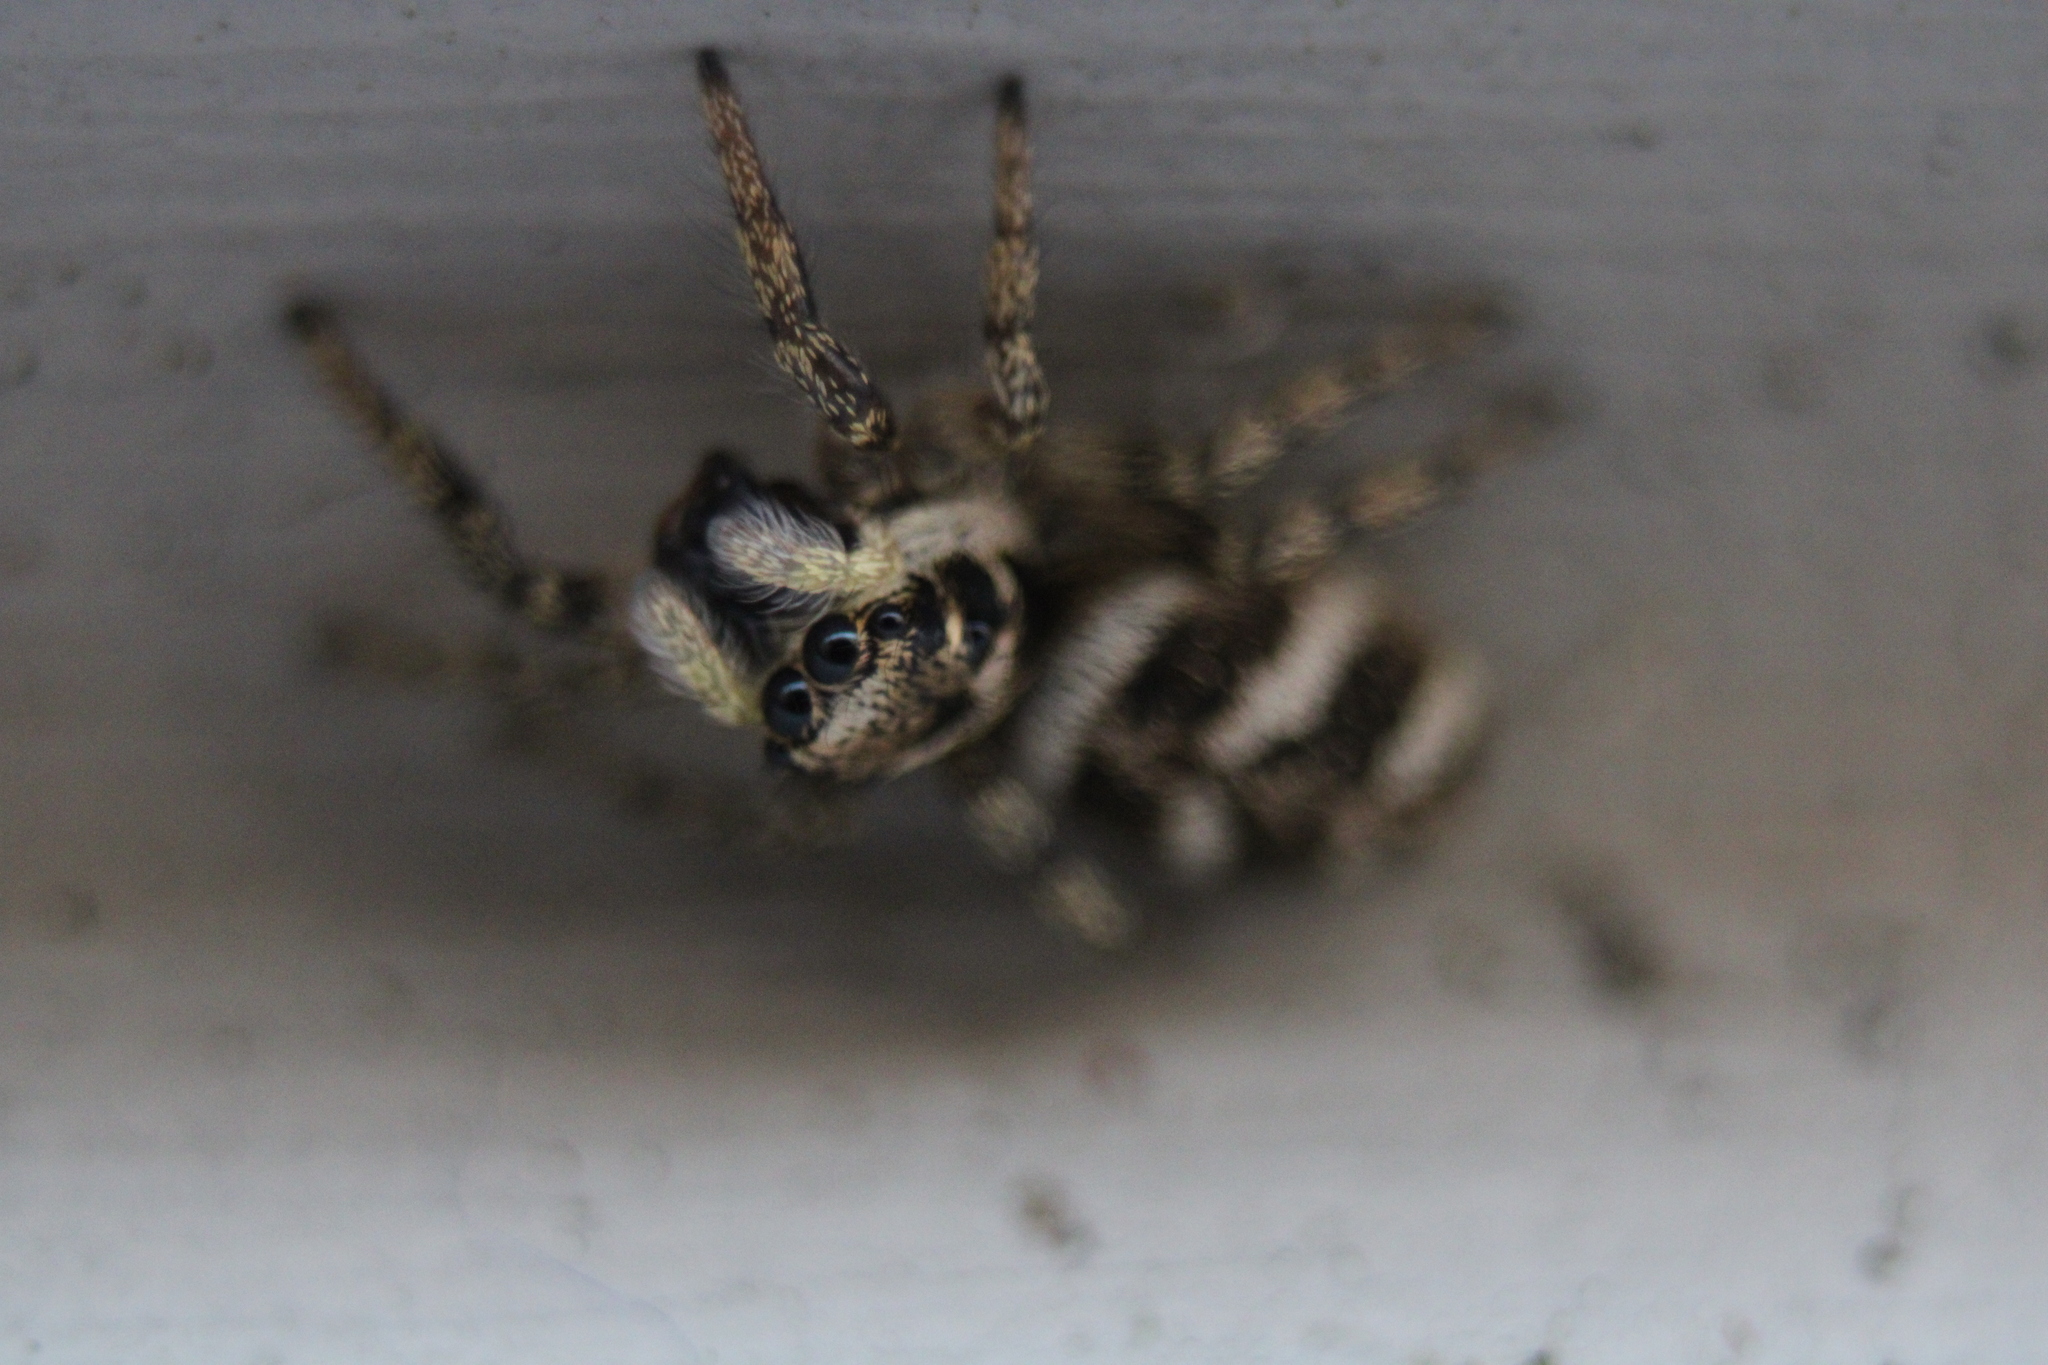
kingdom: Animalia
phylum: Arthropoda
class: Arachnida
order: Araneae
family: Salticidae
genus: Salticus
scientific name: Salticus scenicus
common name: Zebra jumper
